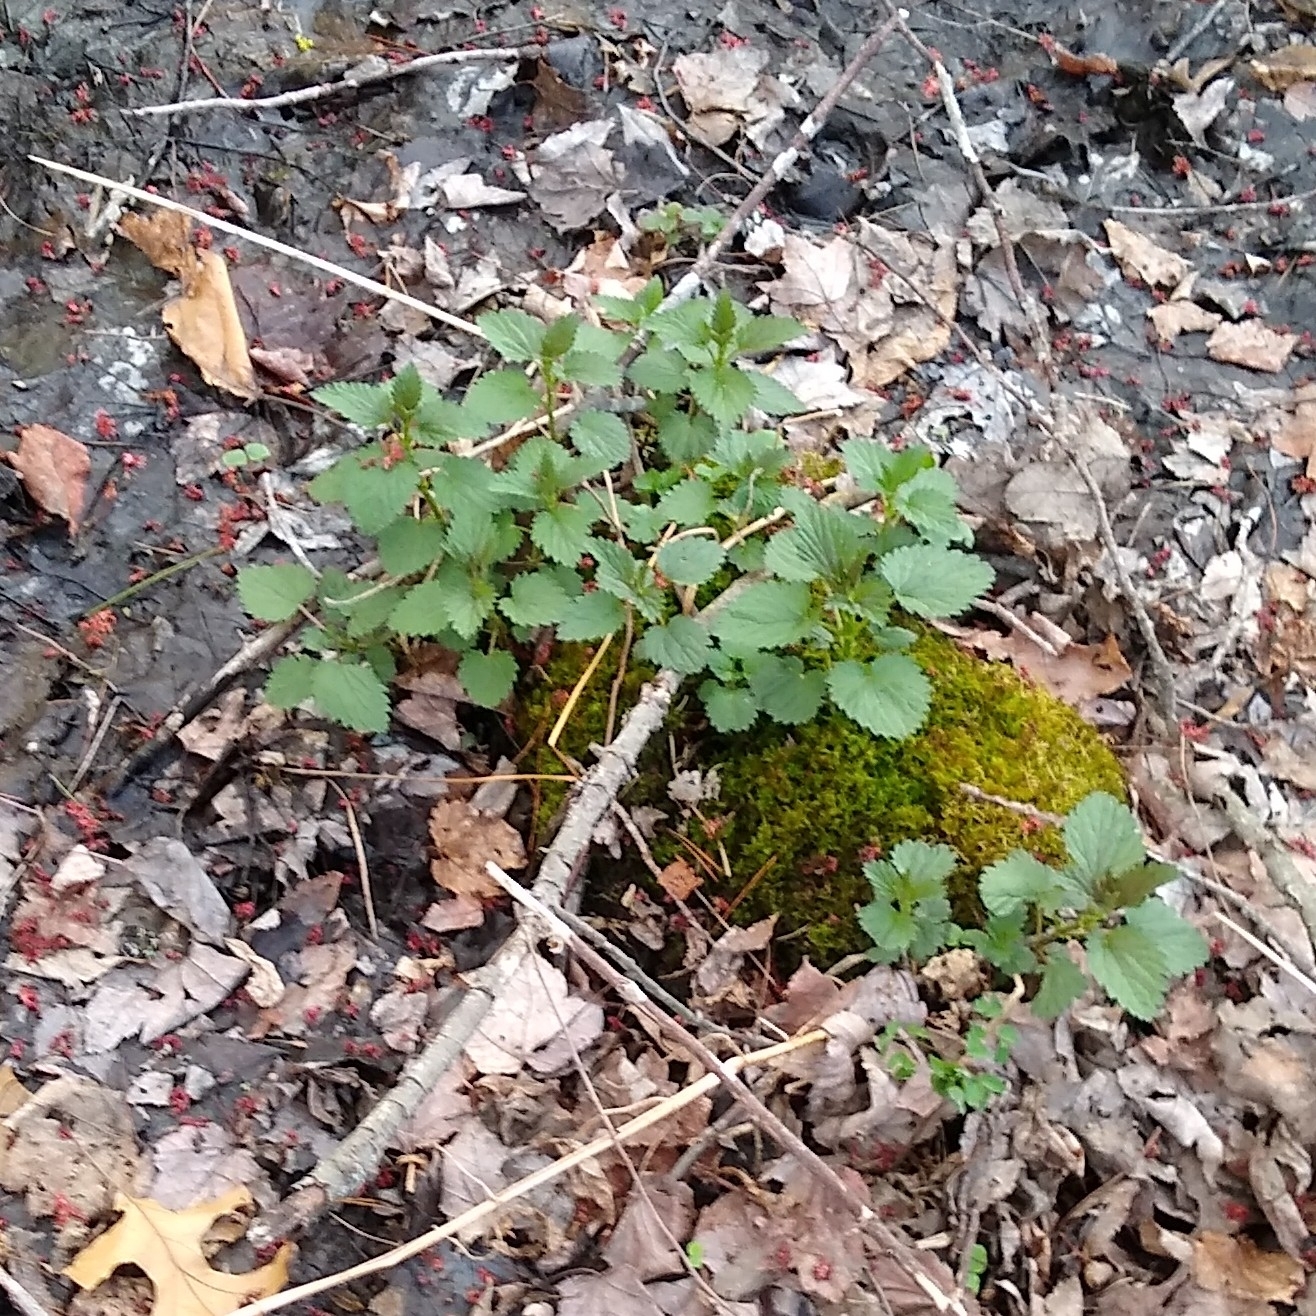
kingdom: Plantae
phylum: Tracheophyta
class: Magnoliopsida
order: Rosales
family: Urticaceae
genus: Urtica
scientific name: Urtica dioica
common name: Common nettle
